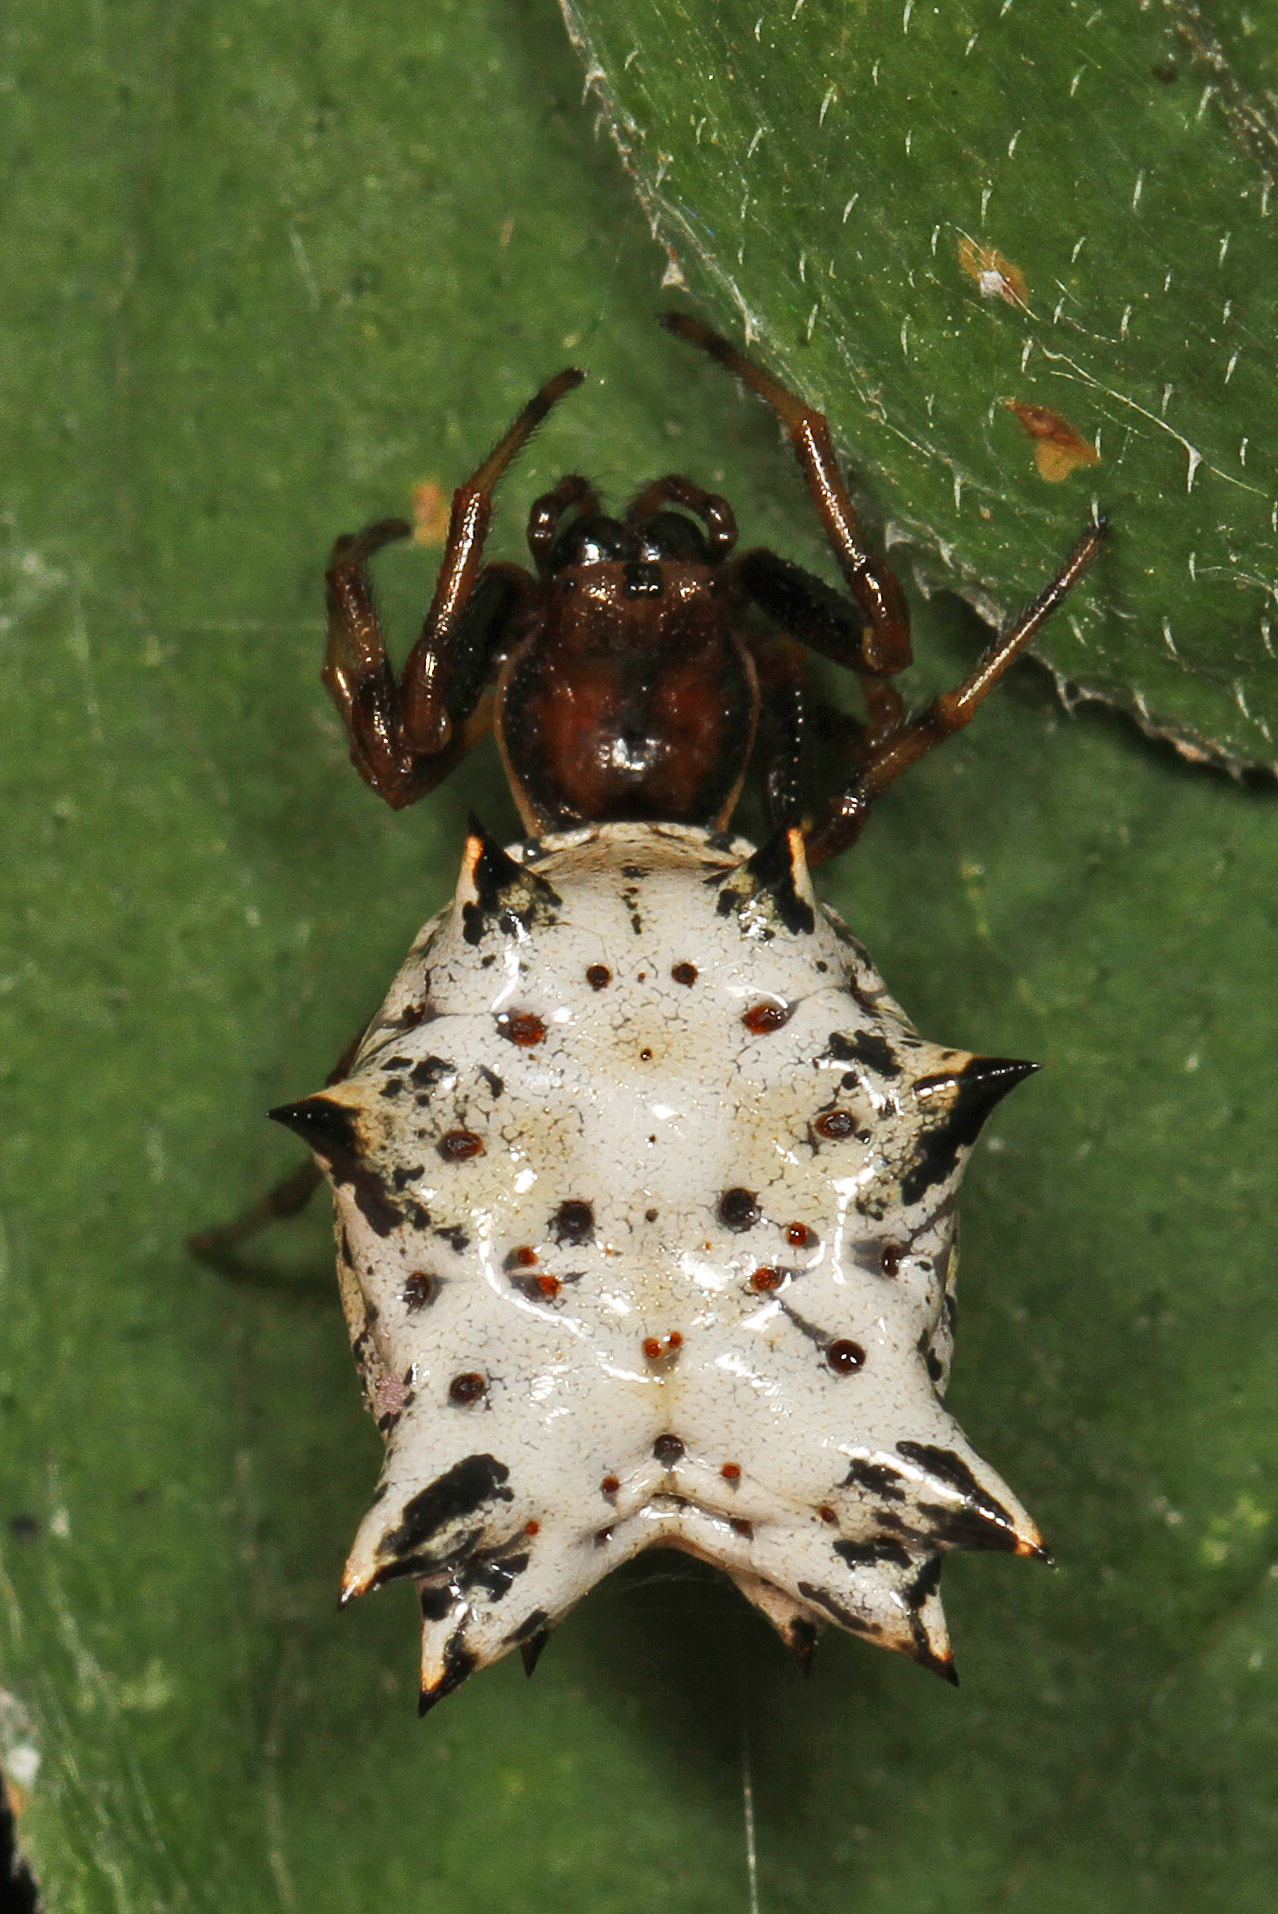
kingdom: Animalia
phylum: Arthropoda
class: Arachnida
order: Araneae
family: Araneidae
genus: Micrathena
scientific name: Micrathena gracilis
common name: Orb weavers
